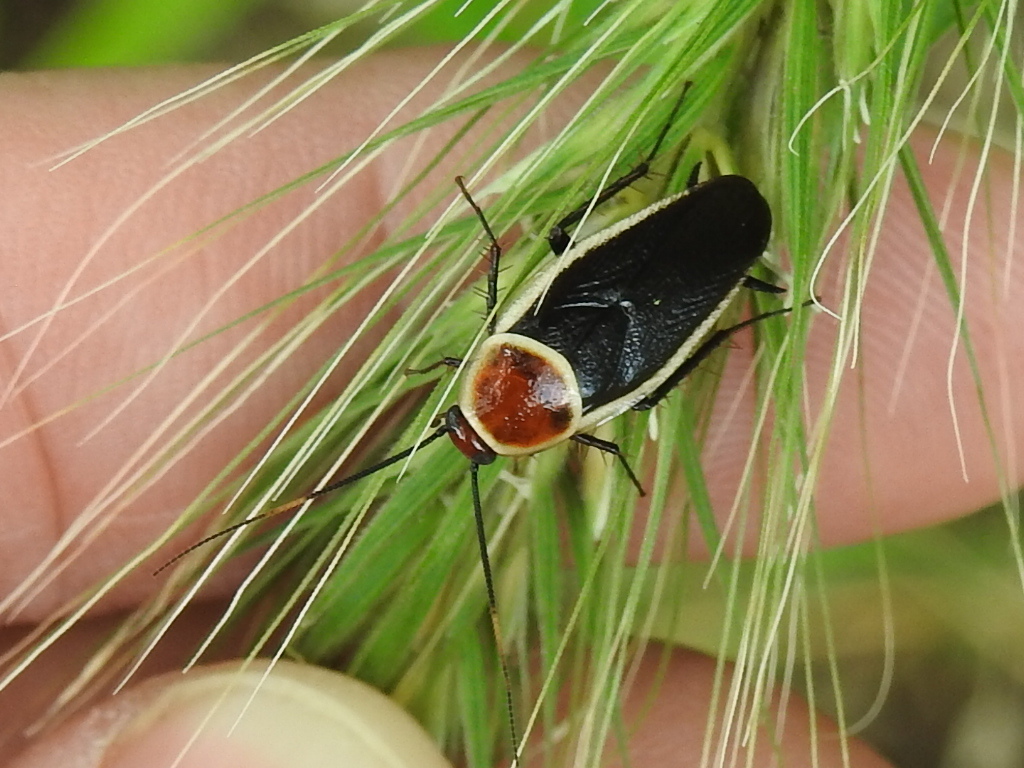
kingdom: Animalia
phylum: Arthropoda
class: Insecta
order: Blattodea
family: Ectobiidae
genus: Pseudomops
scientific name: Pseudomops septentrionalis
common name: Pale-bordered field cockroach
